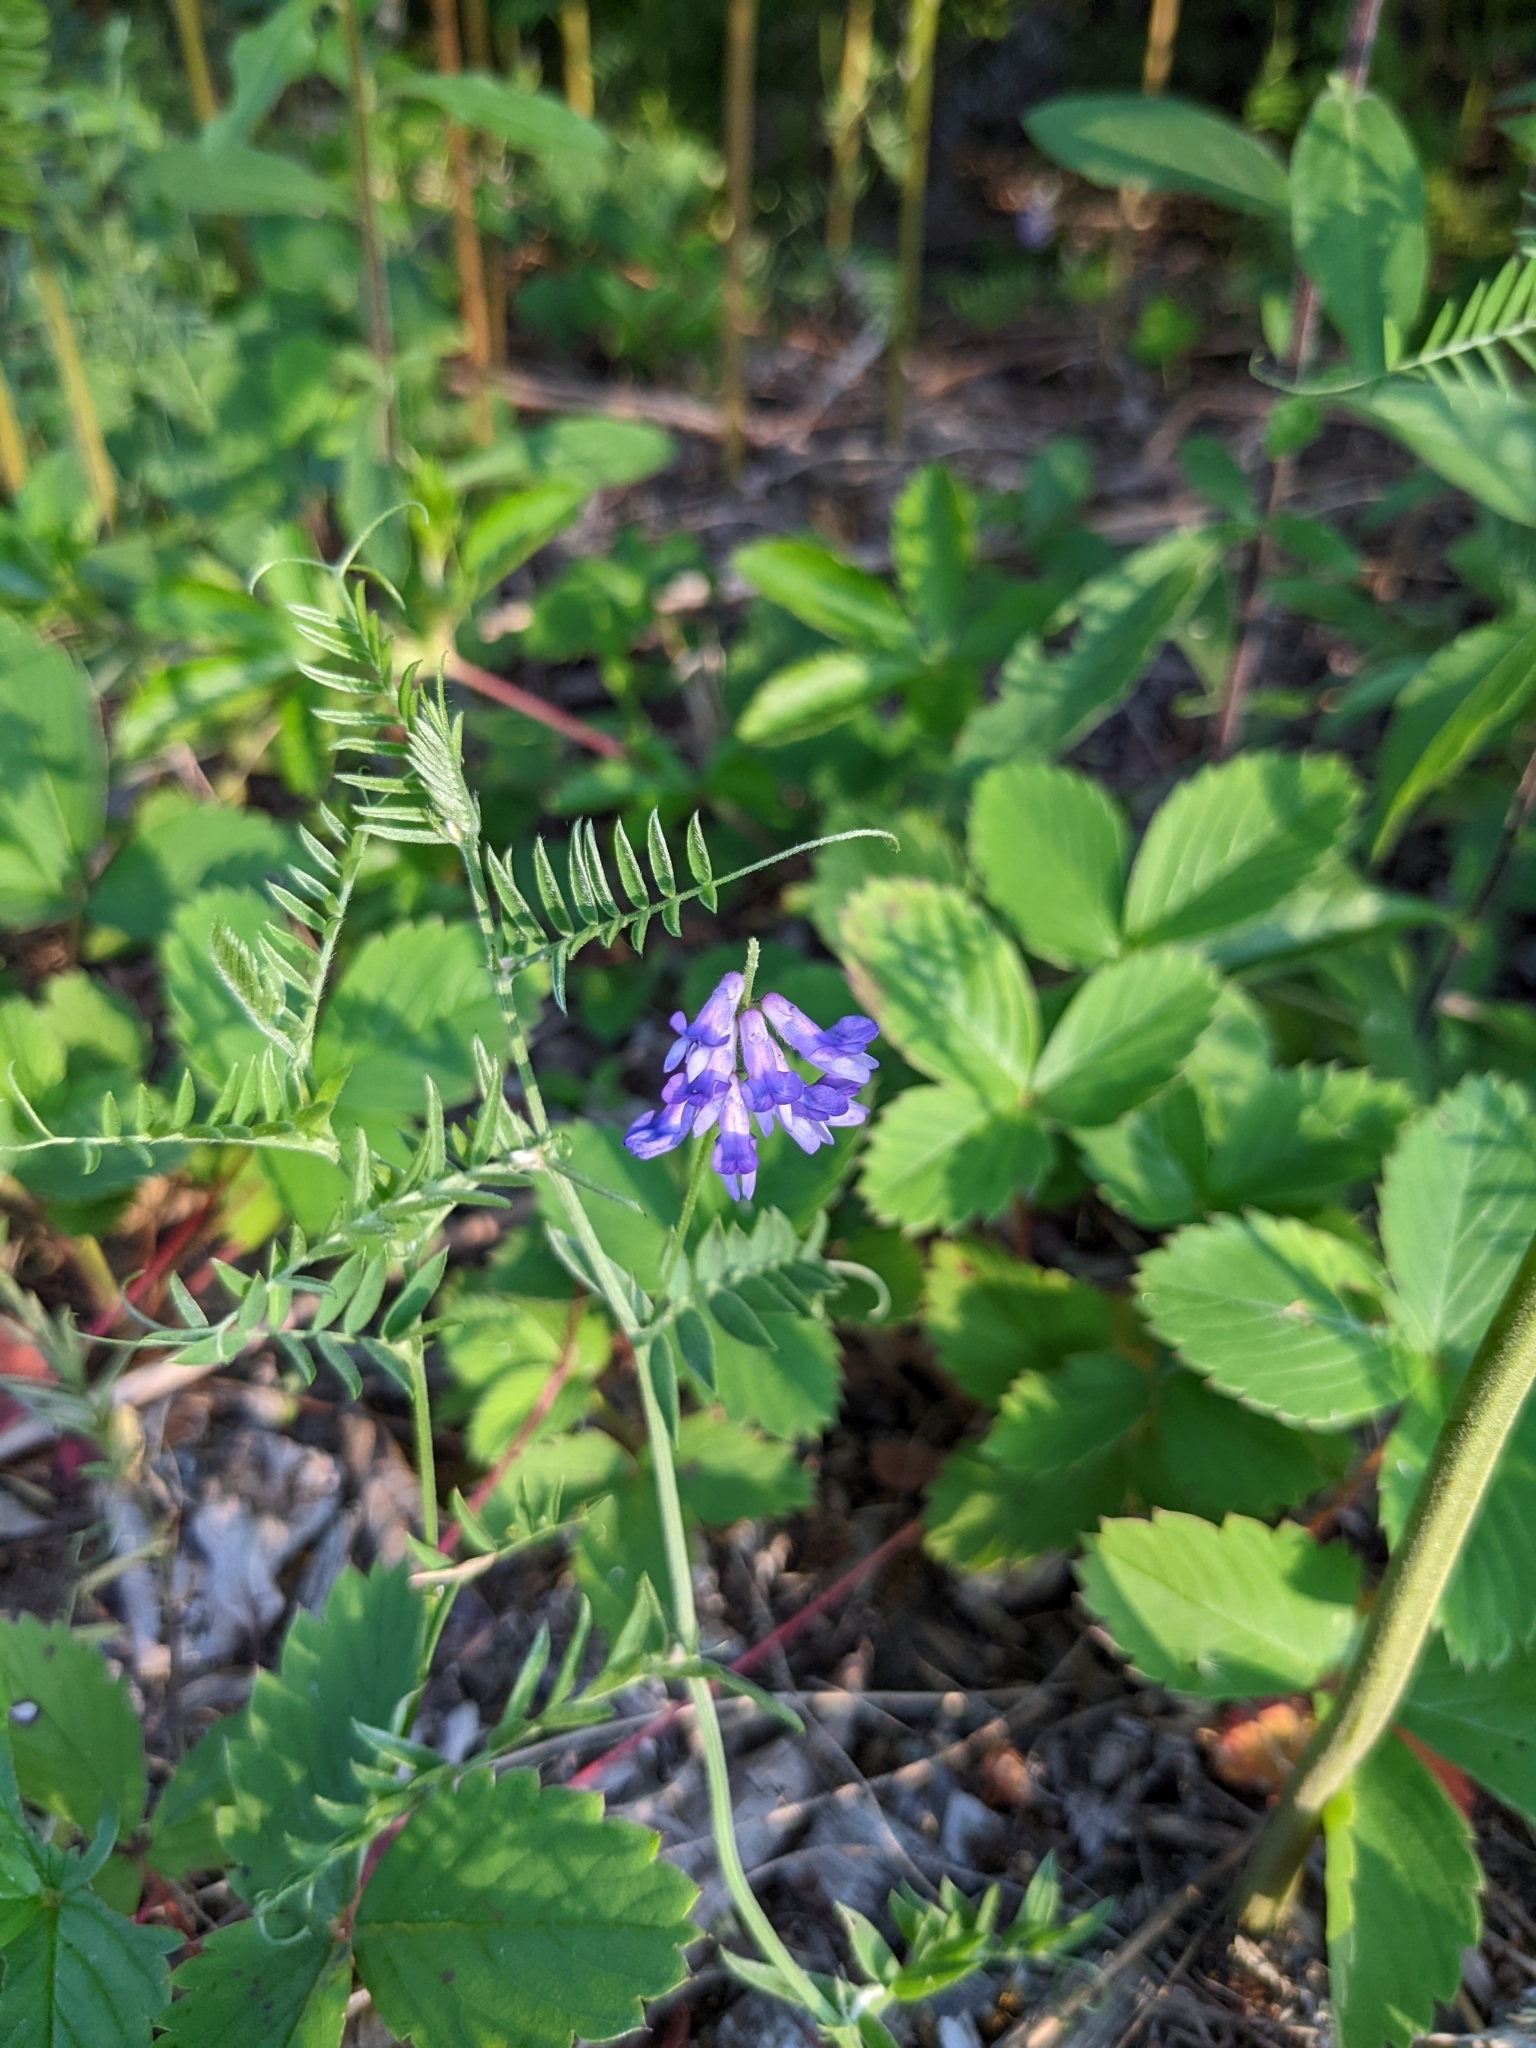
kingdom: Plantae
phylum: Tracheophyta
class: Magnoliopsida
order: Fabales
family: Fabaceae
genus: Vicia
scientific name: Vicia cracca
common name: Bird vetch
